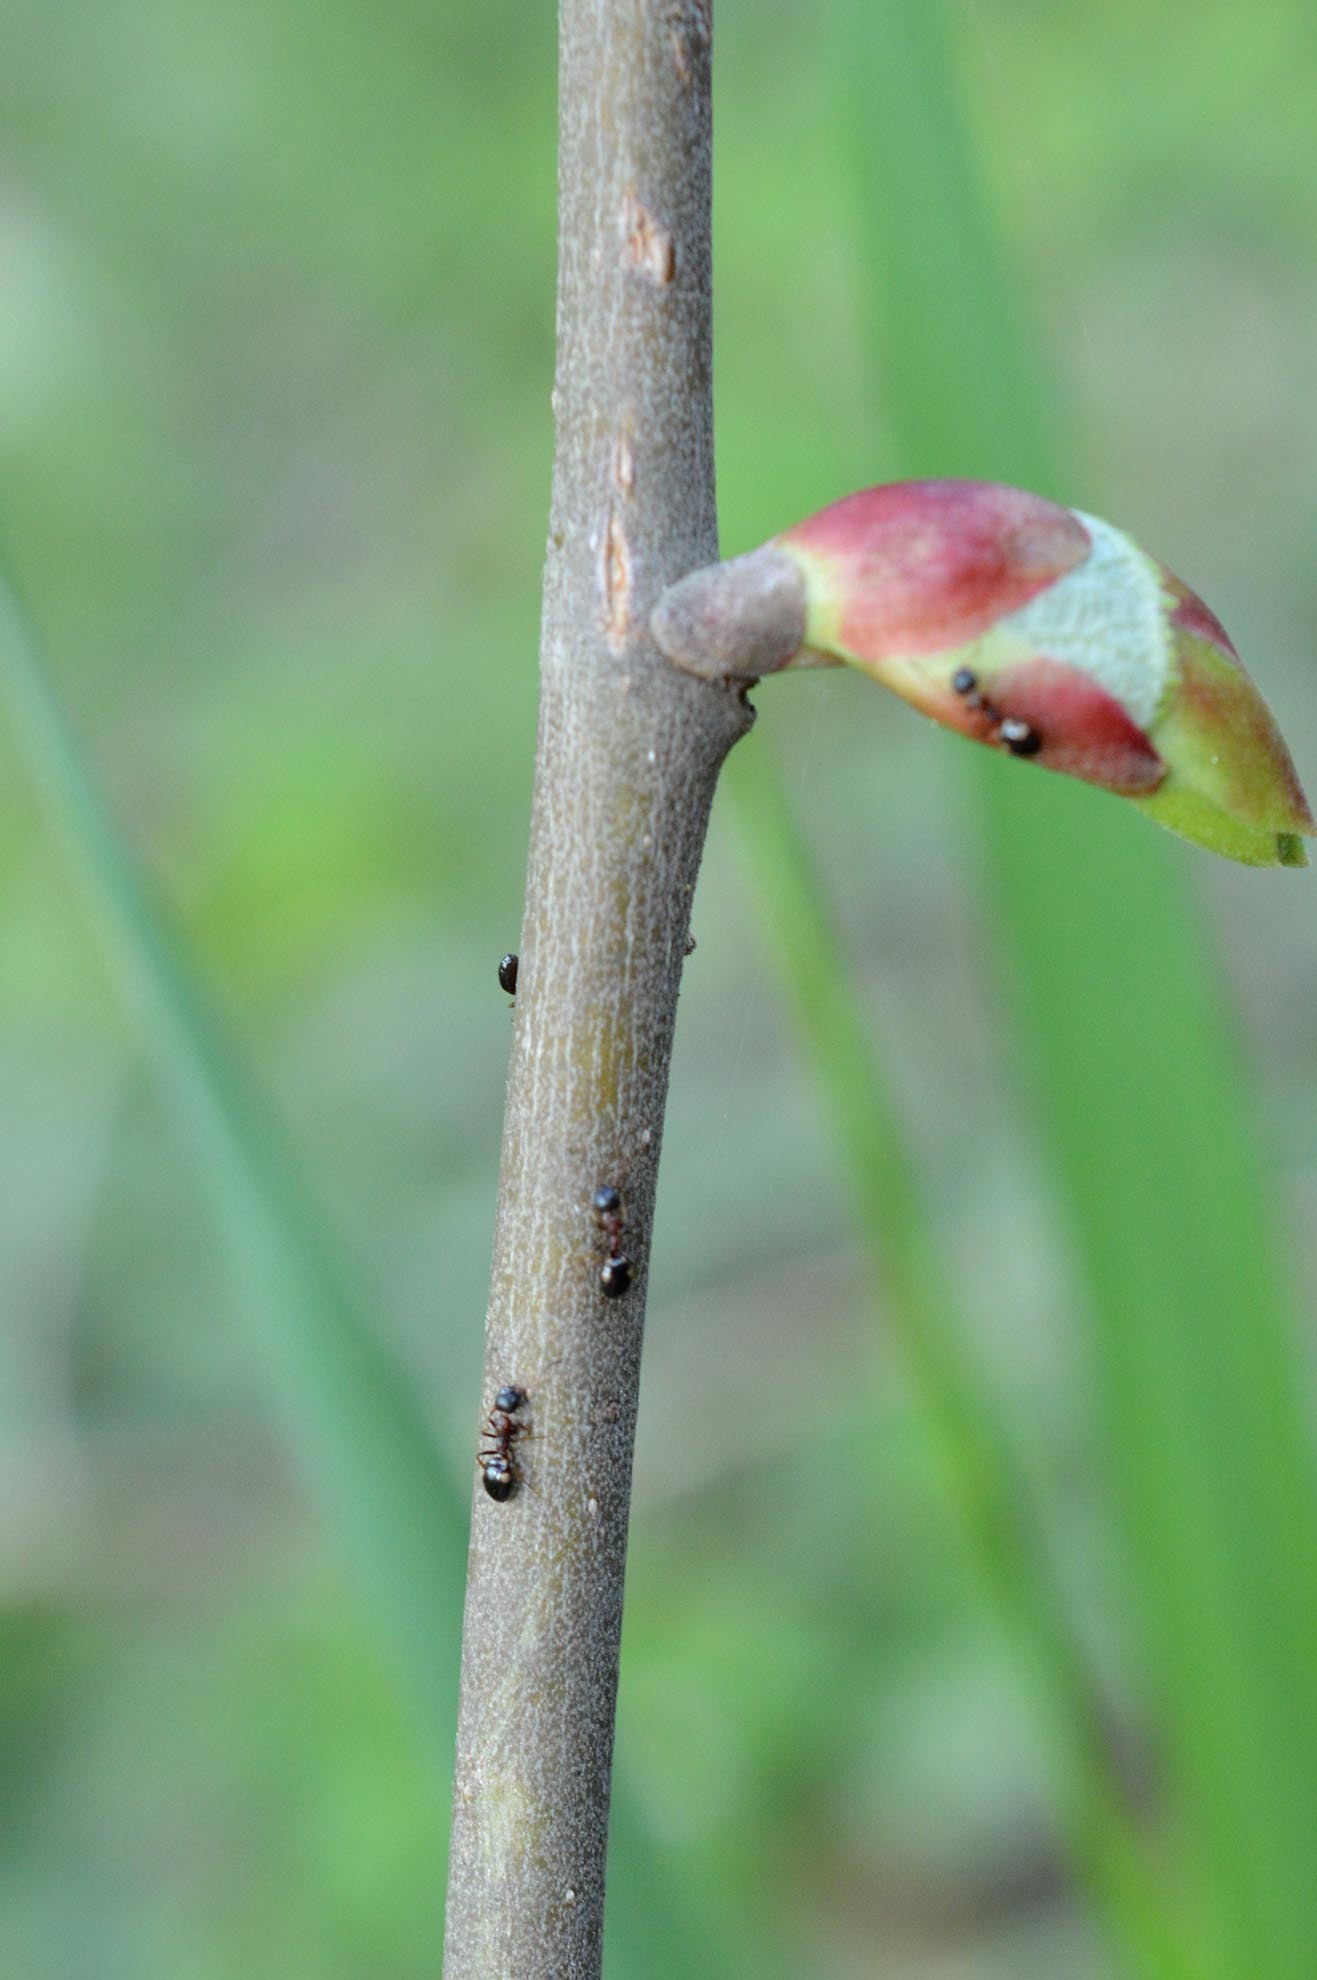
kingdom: Animalia
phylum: Arthropoda
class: Insecta
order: Hymenoptera
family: Formicidae
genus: Dolichoderus
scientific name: Dolichoderus quadripunctatus
